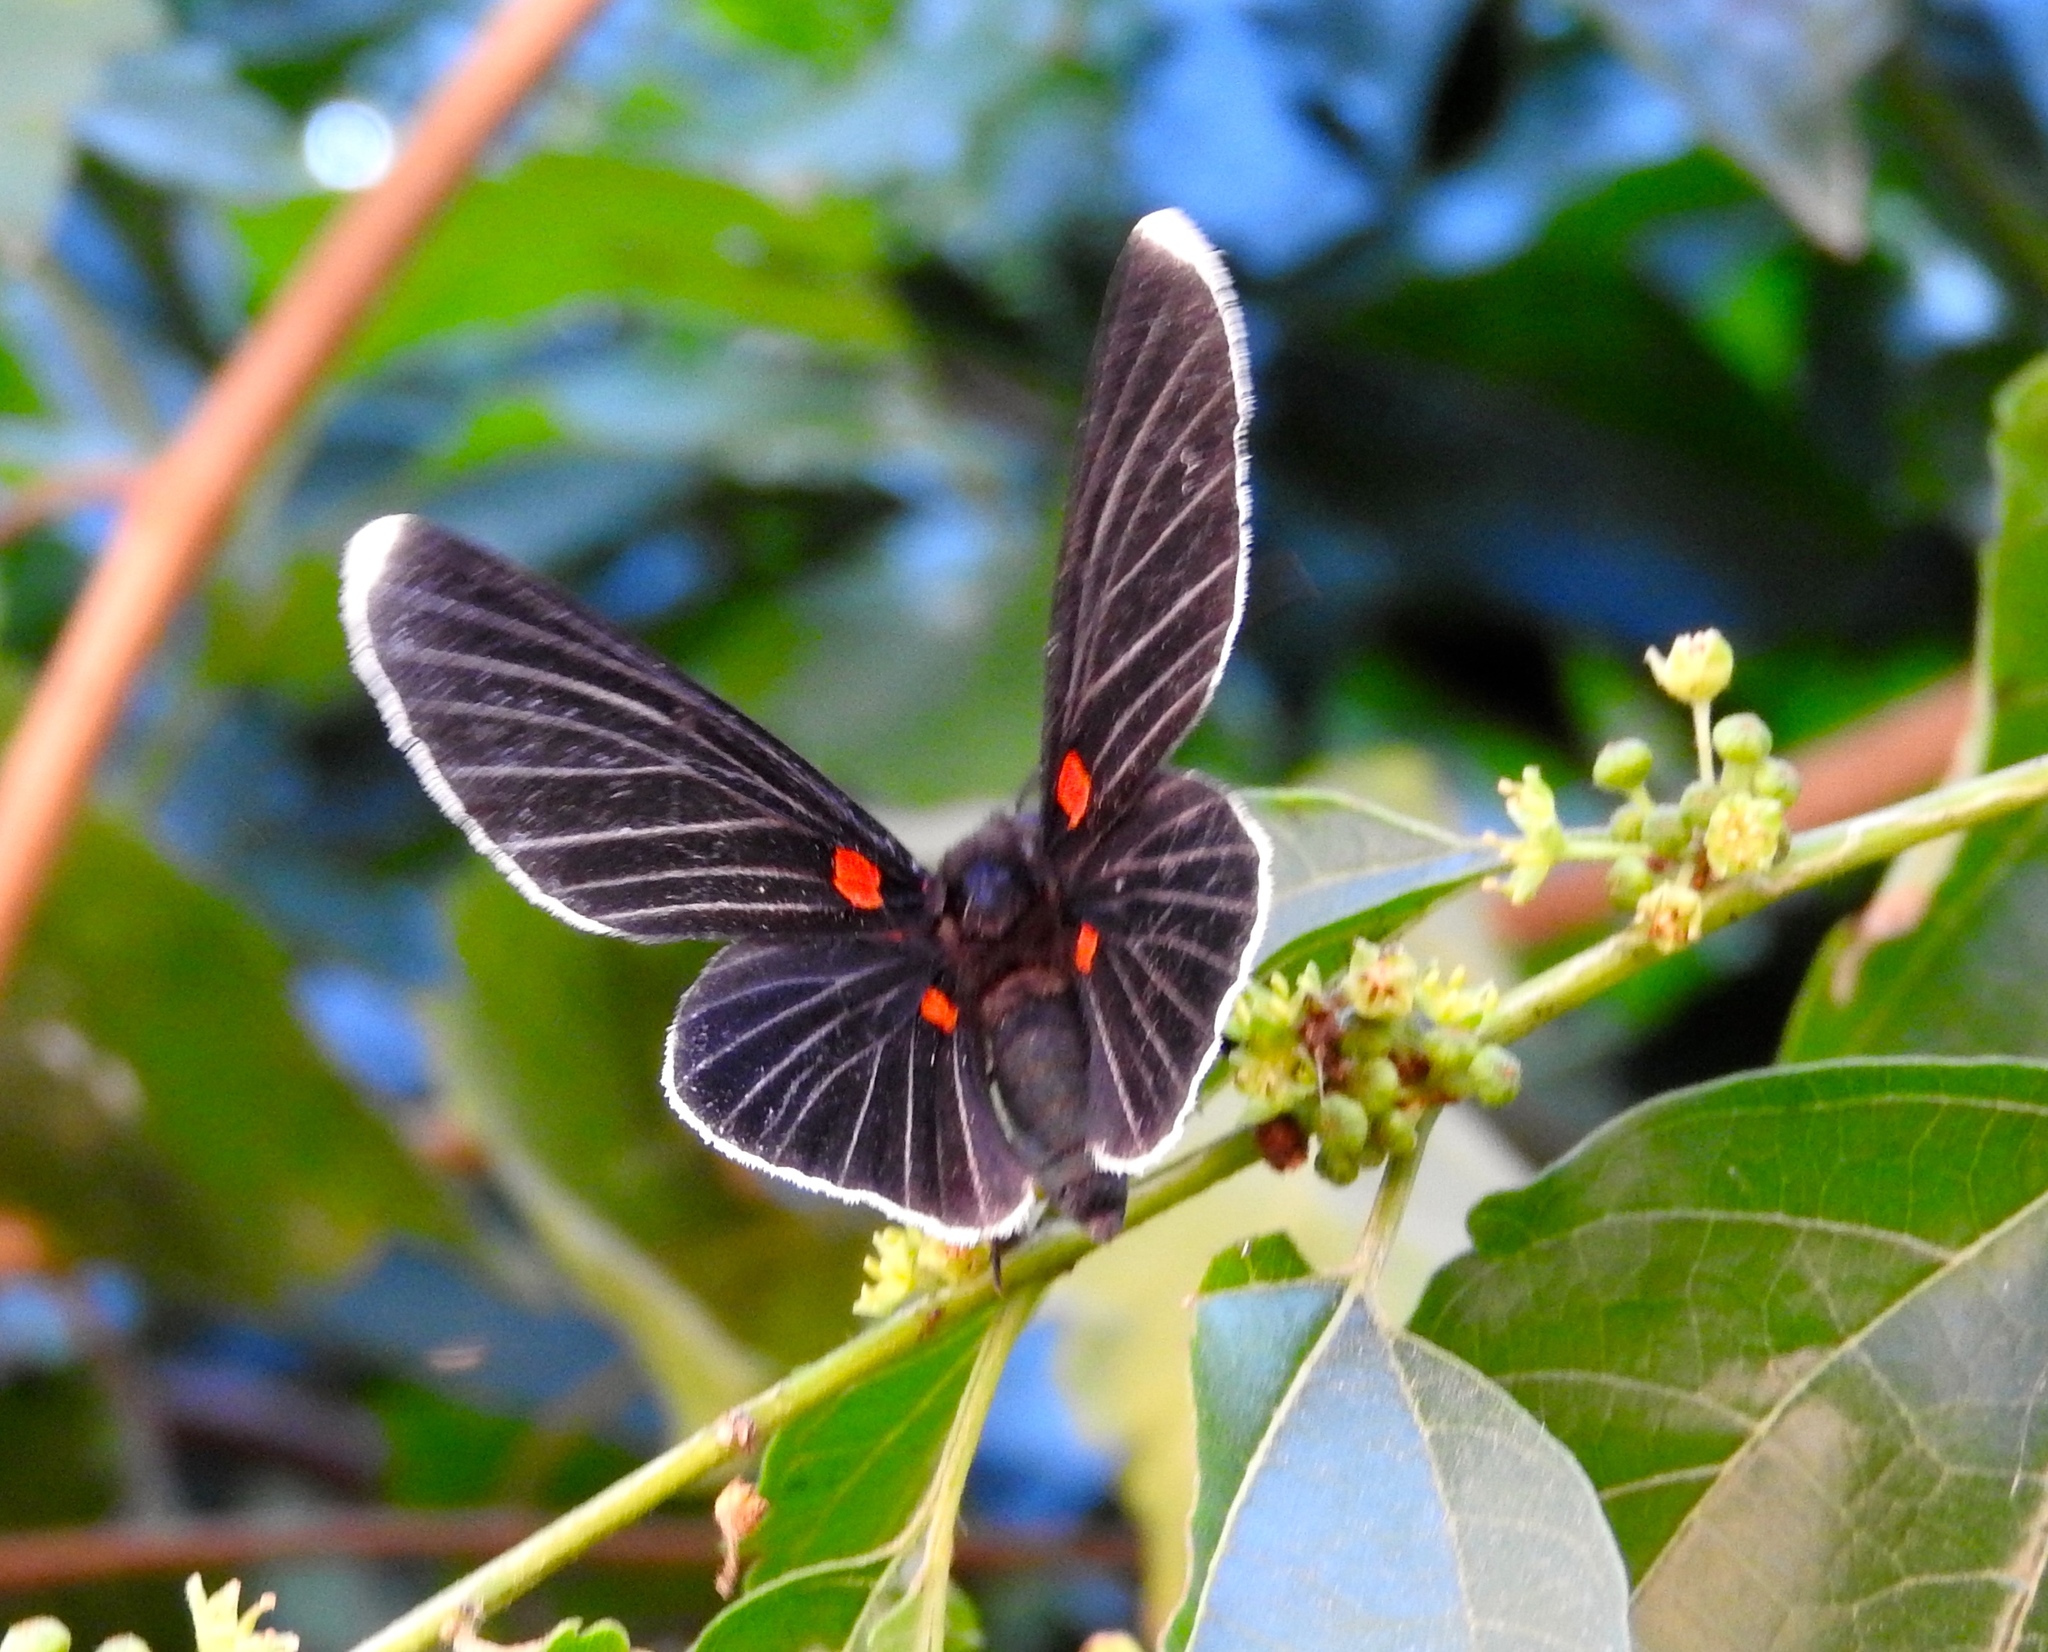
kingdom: Animalia
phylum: Arthropoda
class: Insecta
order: Lepidoptera
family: Lycaenidae
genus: Melanis
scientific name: Melanis
